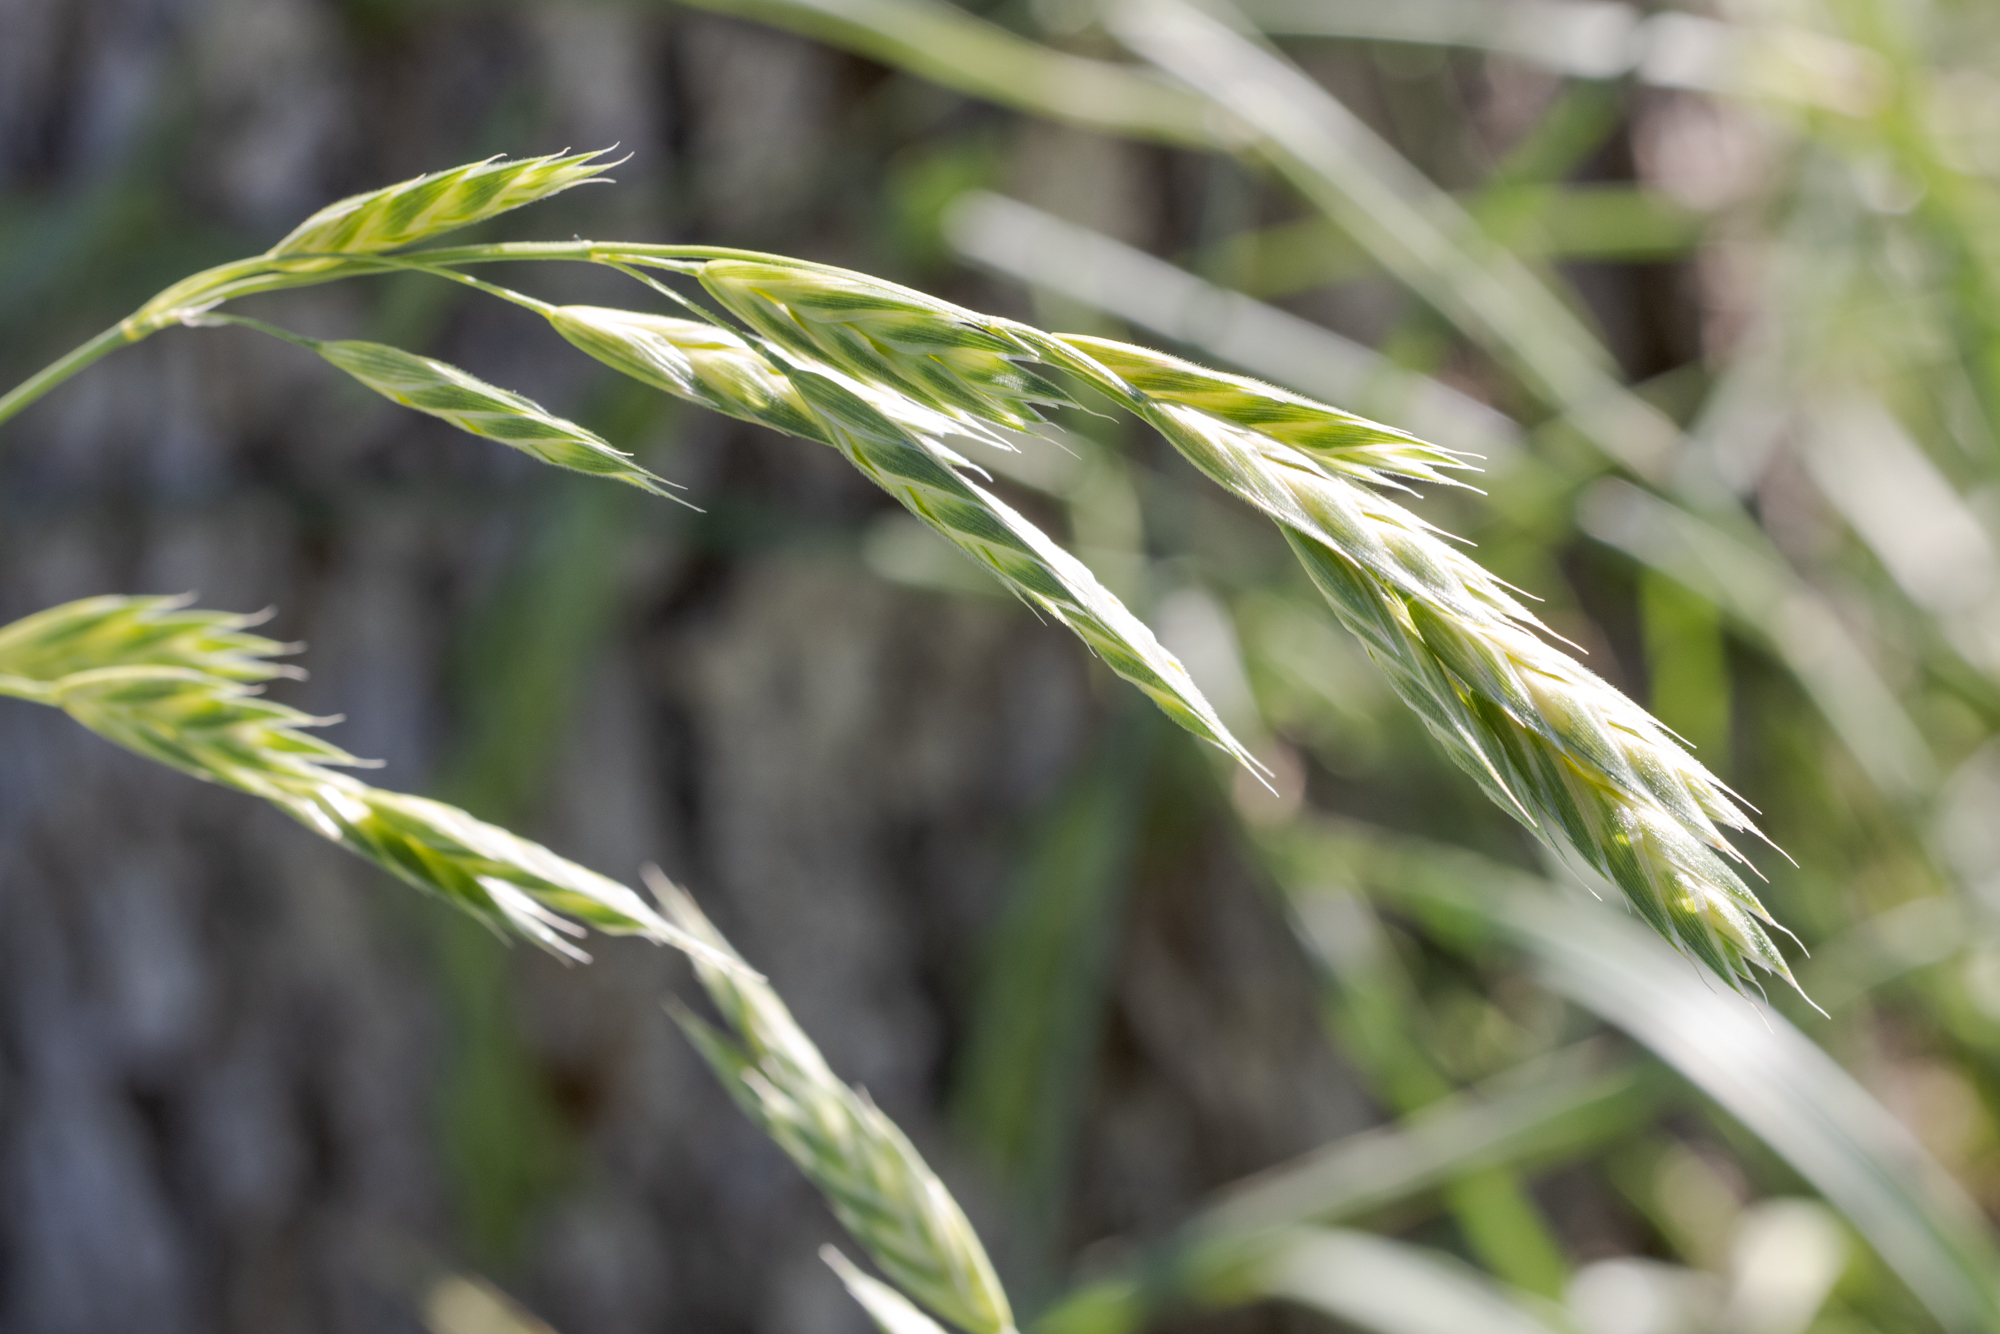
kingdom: Plantae
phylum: Tracheophyta
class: Liliopsida
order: Poales
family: Poaceae
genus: Bromus
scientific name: Bromus catharticus
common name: Rescuegrass
